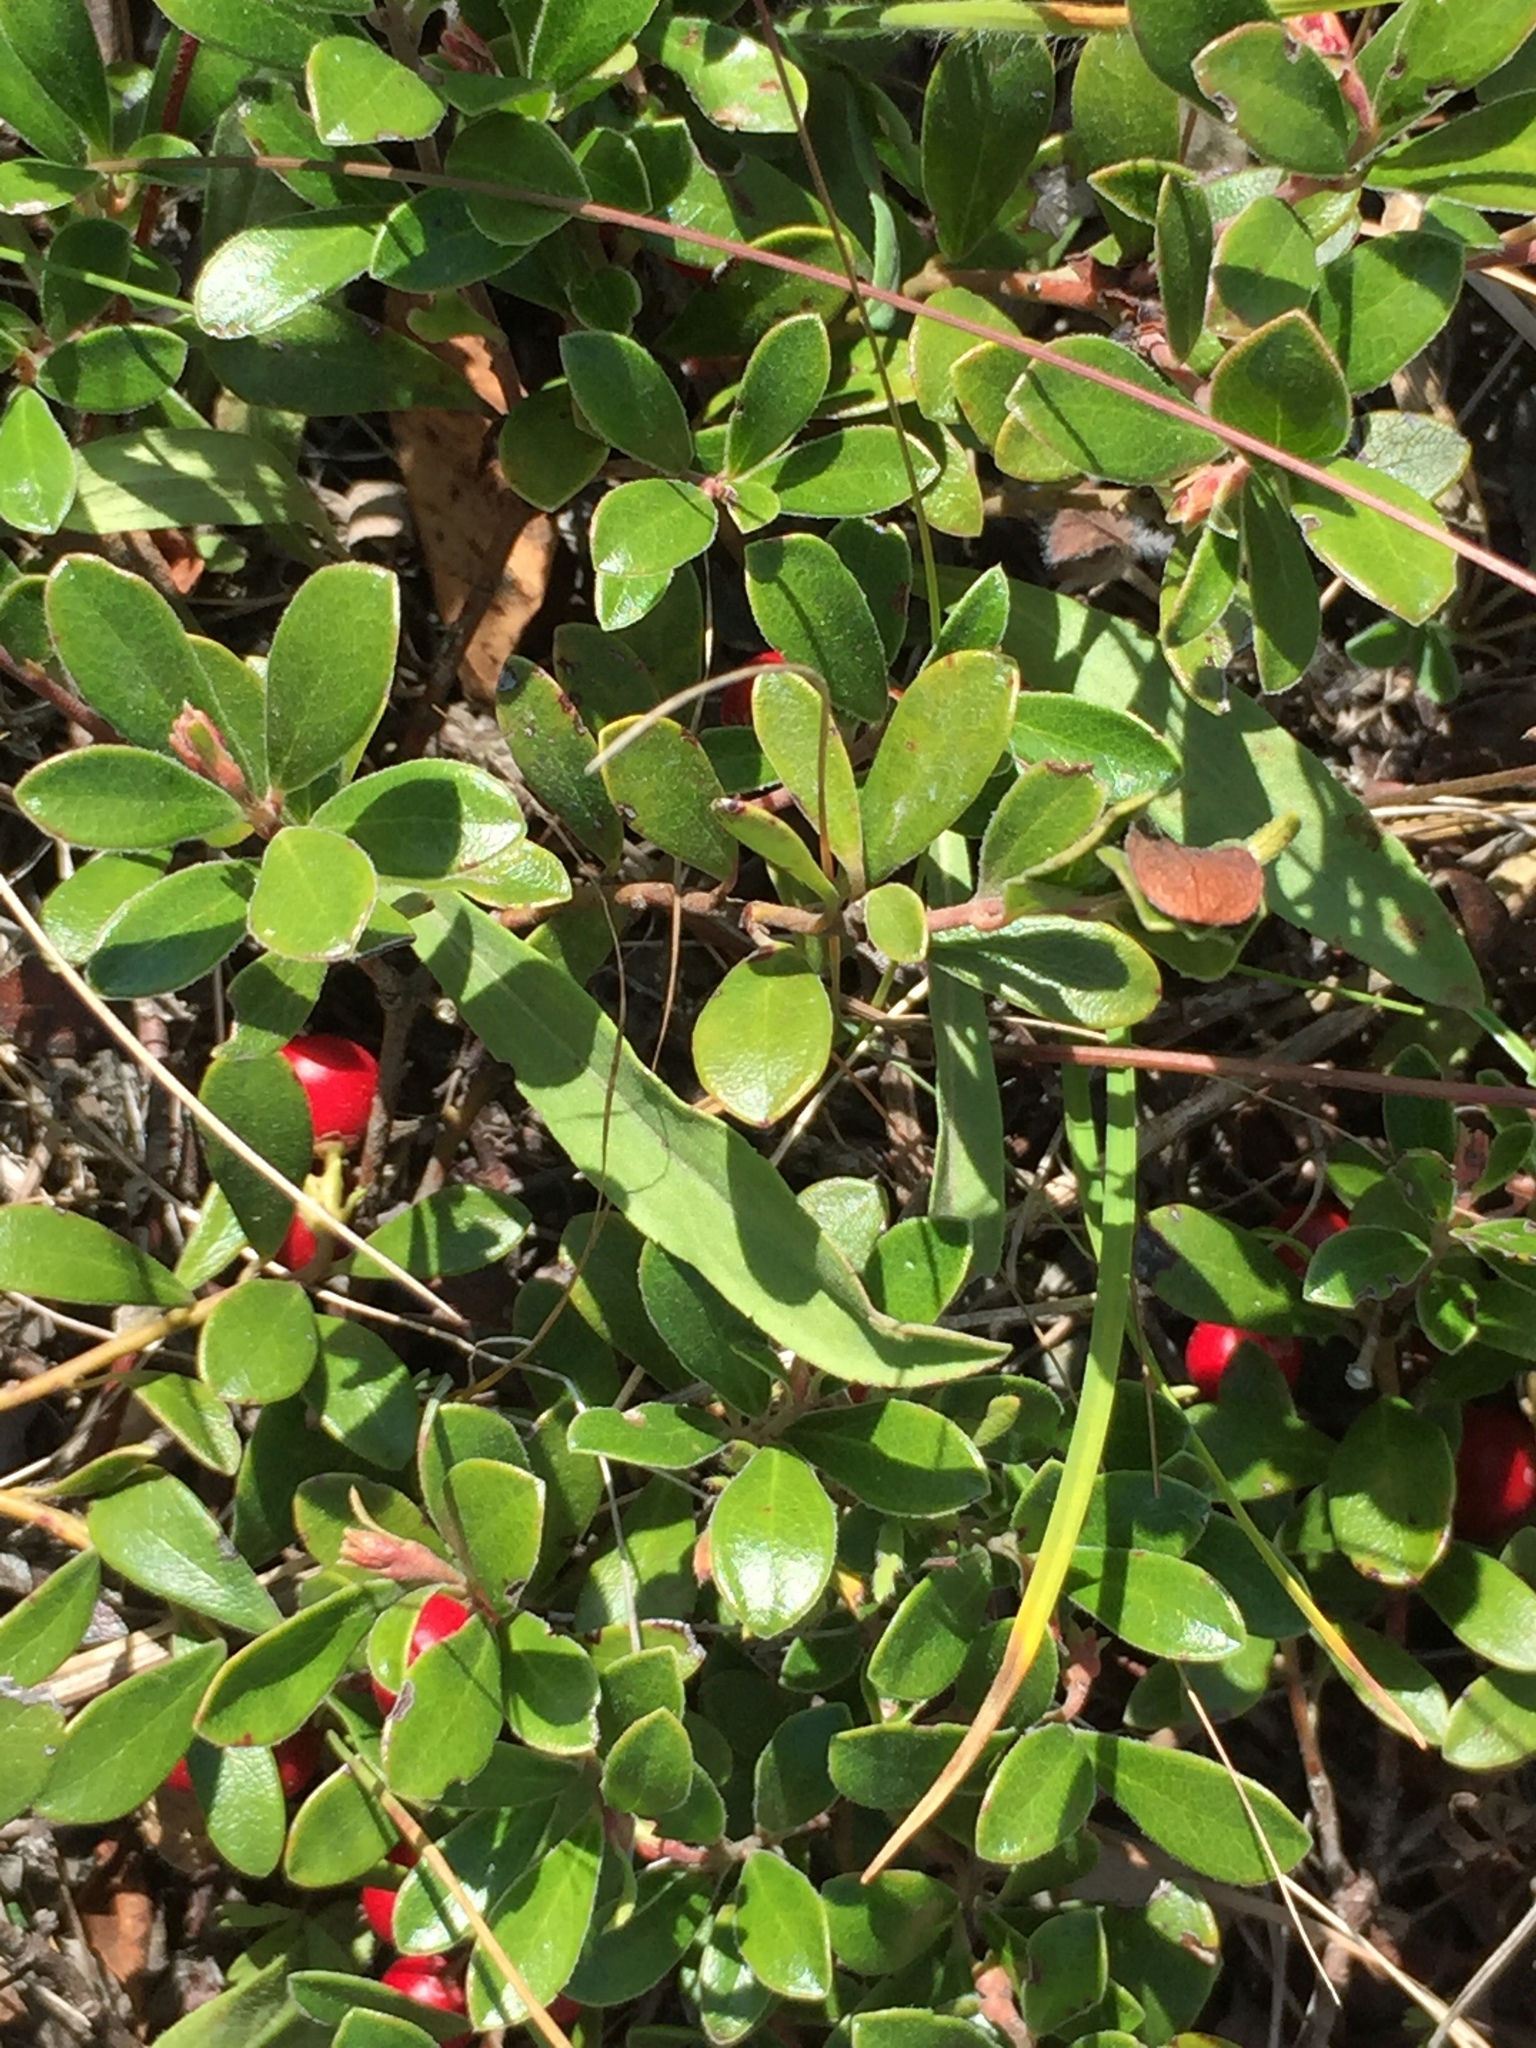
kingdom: Plantae
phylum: Tracheophyta
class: Magnoliopsida
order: Ericales
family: Ericaceae
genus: Arctostaphylos
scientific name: Arctostaphylos uva-ursi
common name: Bearberry
